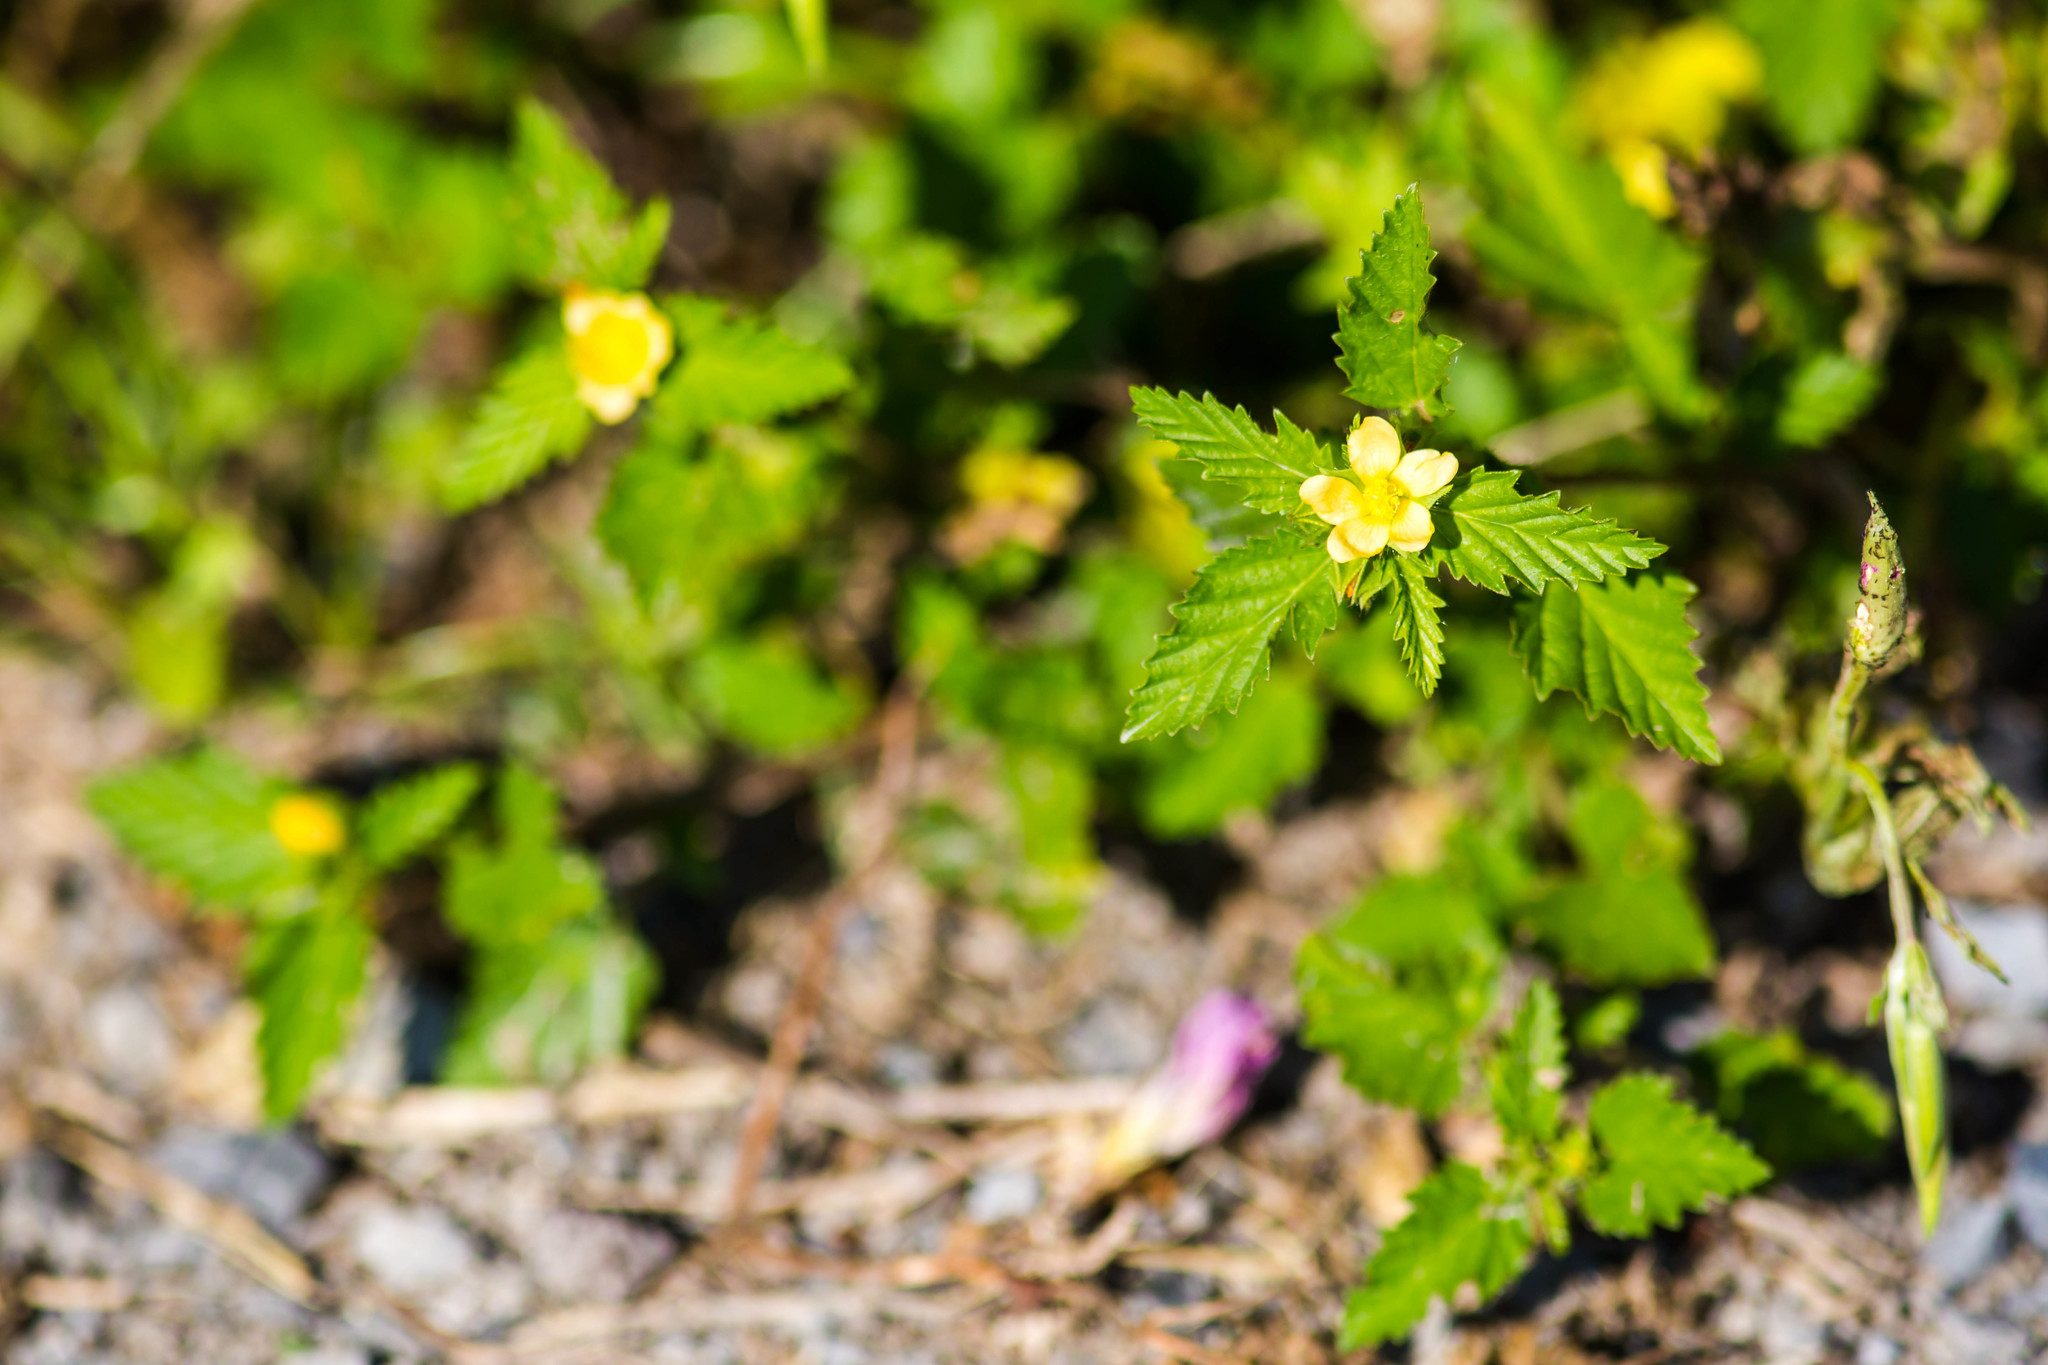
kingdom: Plantae
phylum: Tracheophyta
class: Magnoliopsida
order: Malvales
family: Malvaceae
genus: Malvastrum
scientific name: Malvastrum coromandelianum
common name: Threelobe false mallow
